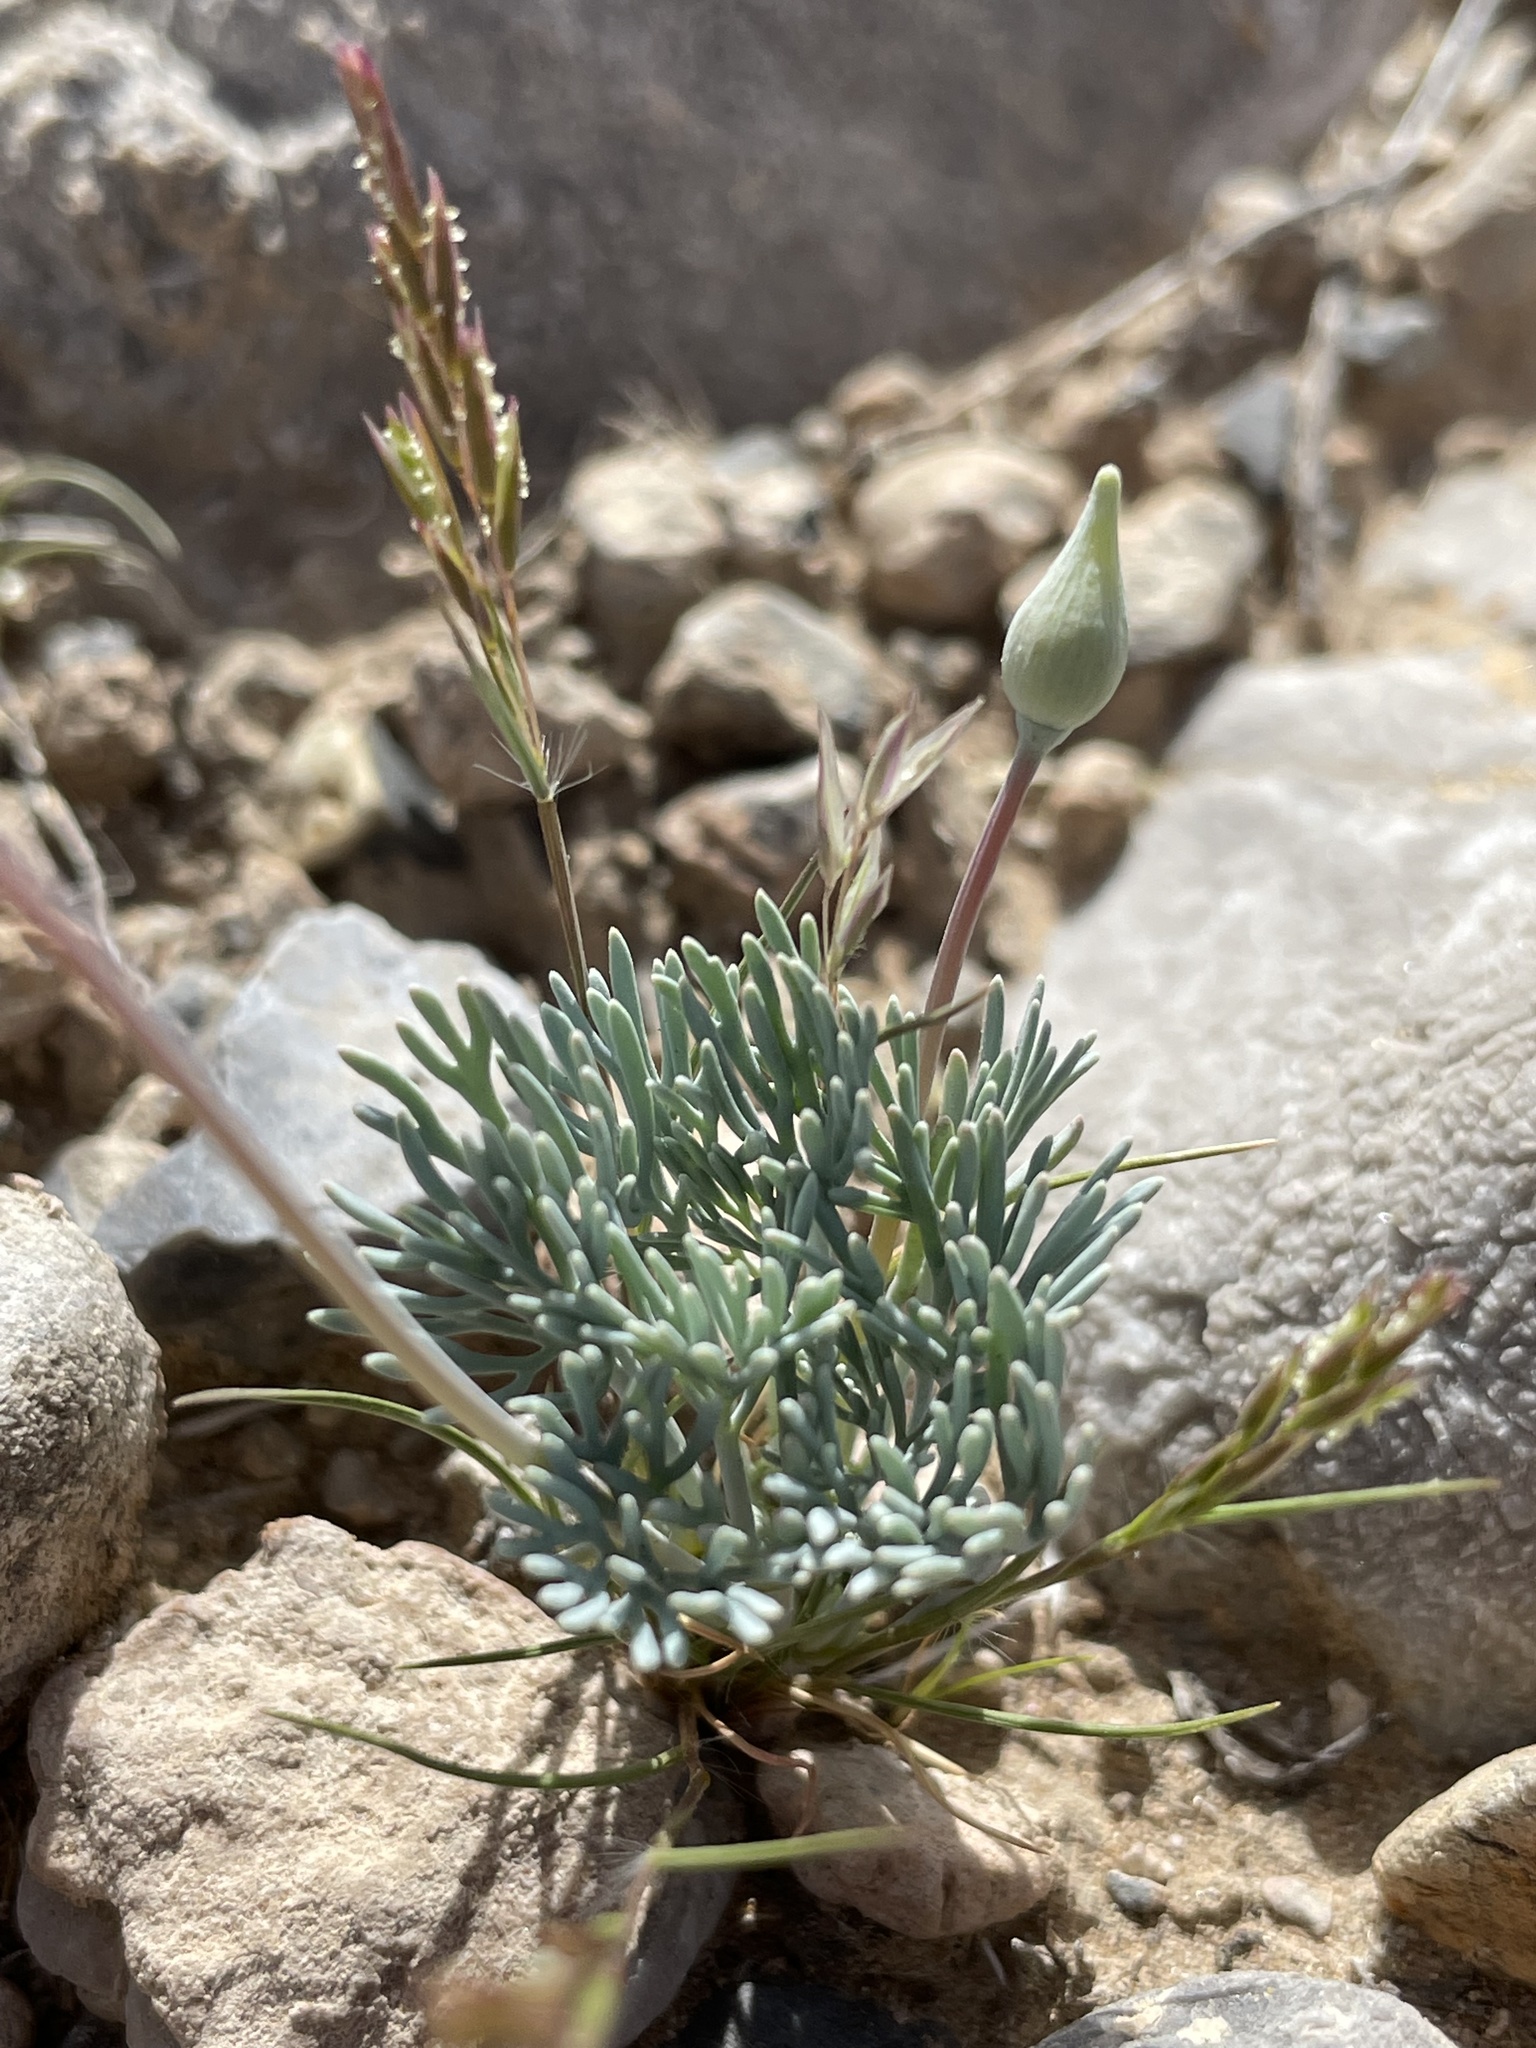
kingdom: Plantae
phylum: Tracheophyta
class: Magnoliopsida
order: Ranunculales
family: Papaveraceae
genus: Eschscholzia
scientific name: Eschscholzia glyptosperma
